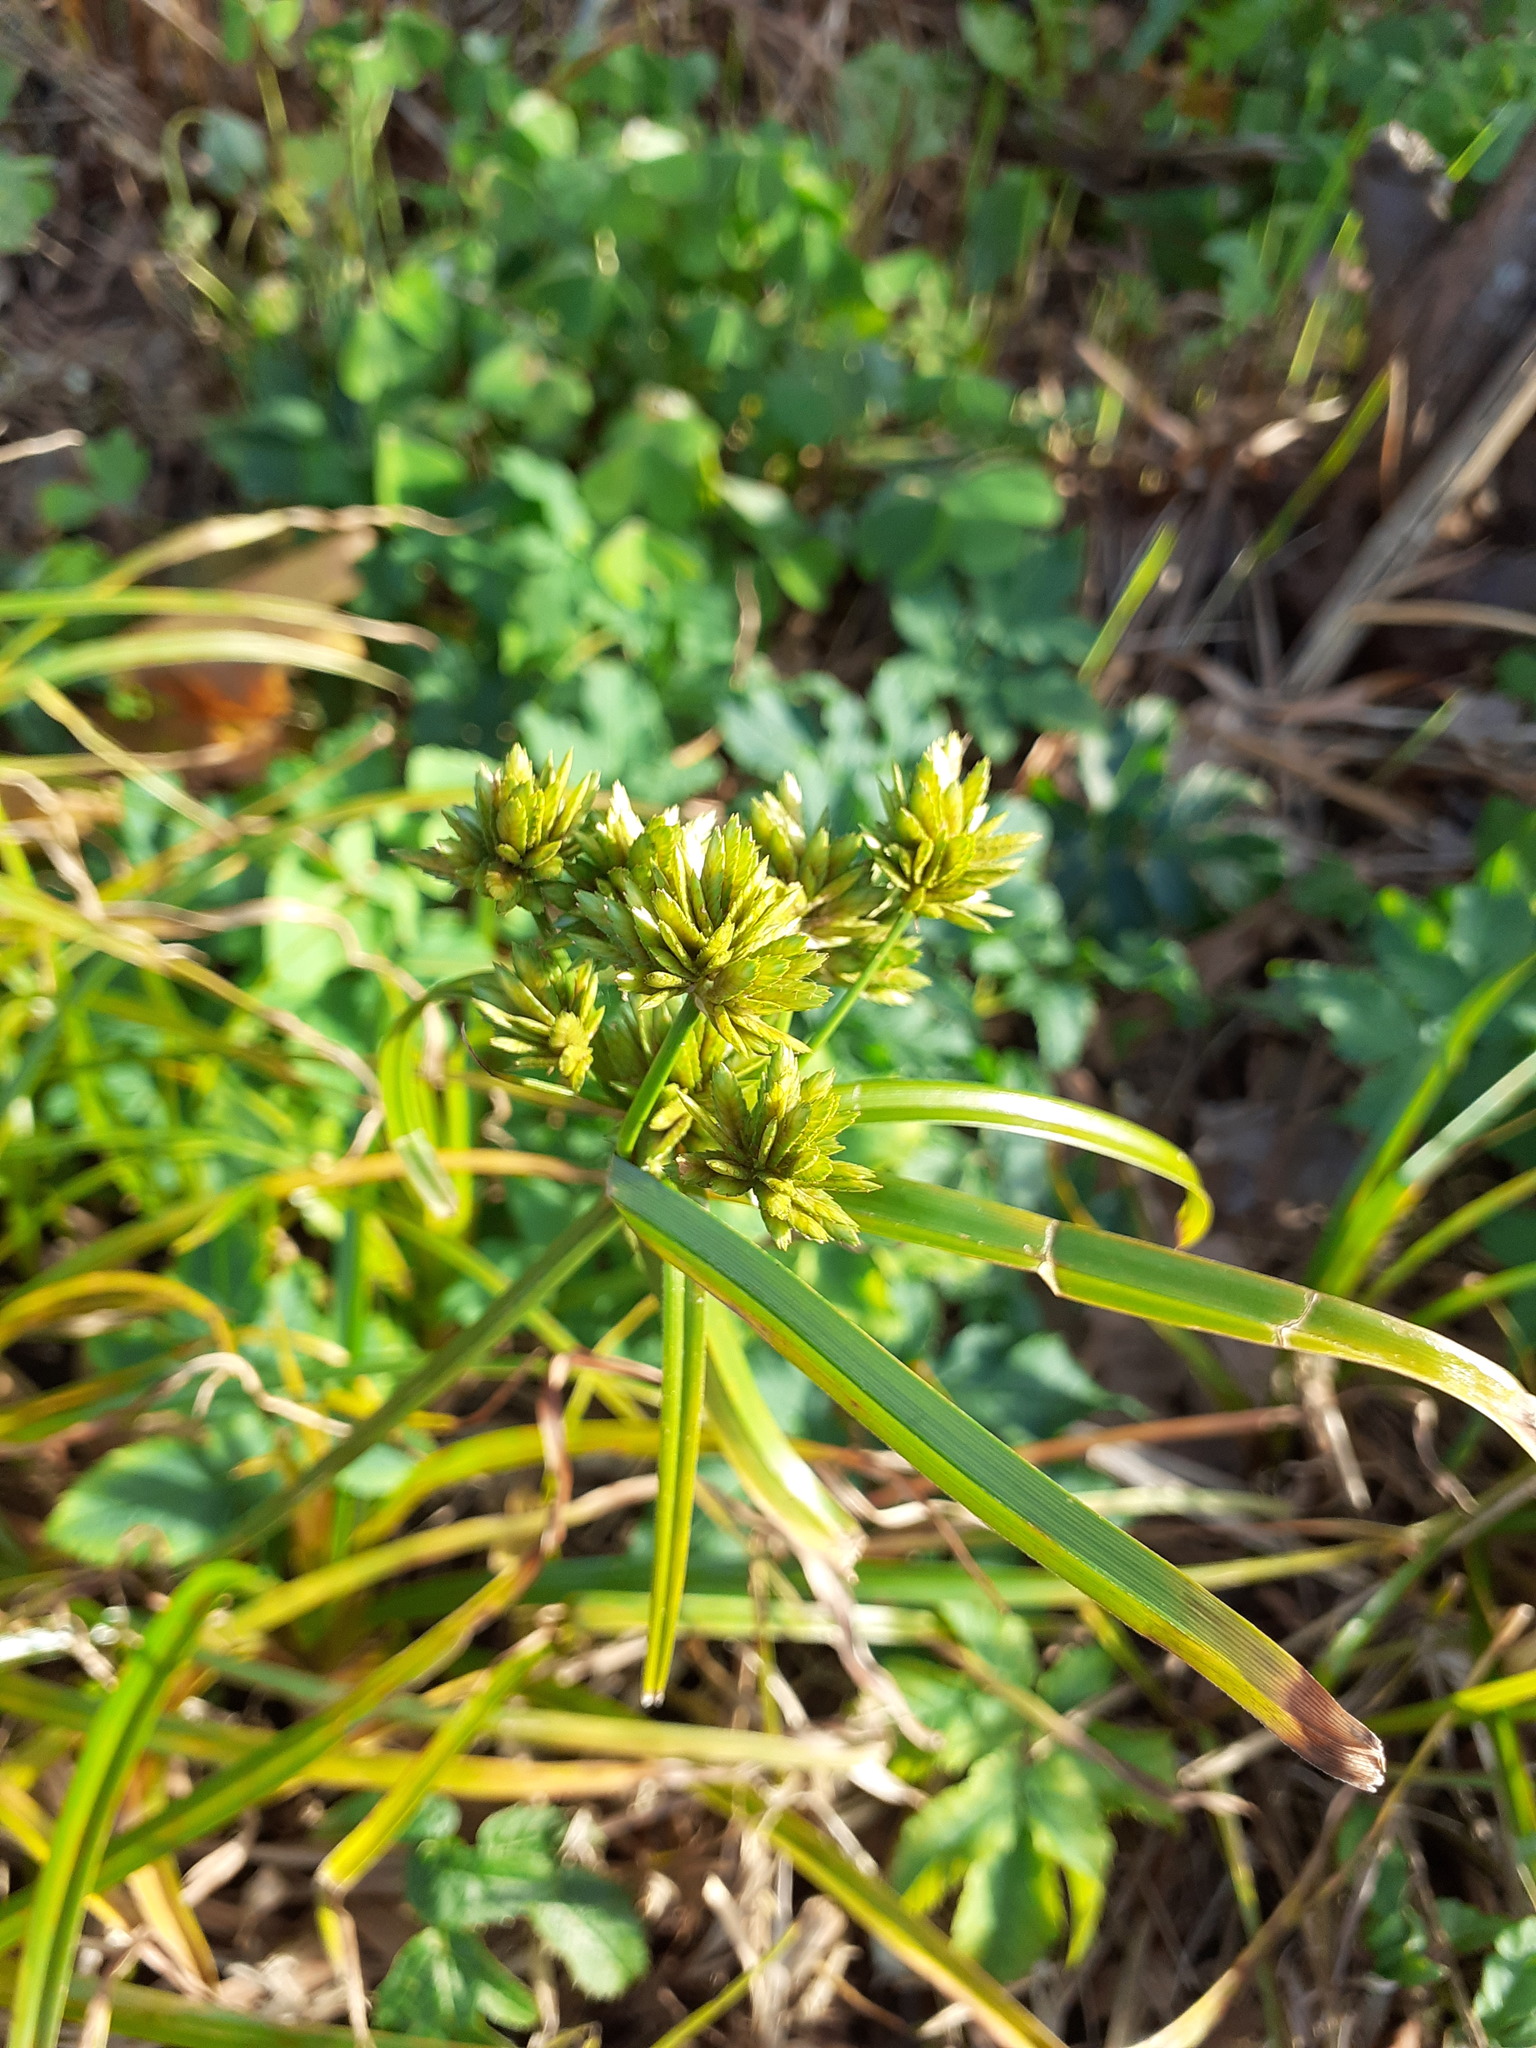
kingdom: Plantae
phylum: Tracheophyta
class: Liliopsida
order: Poales
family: Cyperaceae
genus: Cyperus
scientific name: Cyperus eragrostis
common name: Tall flatsedge
